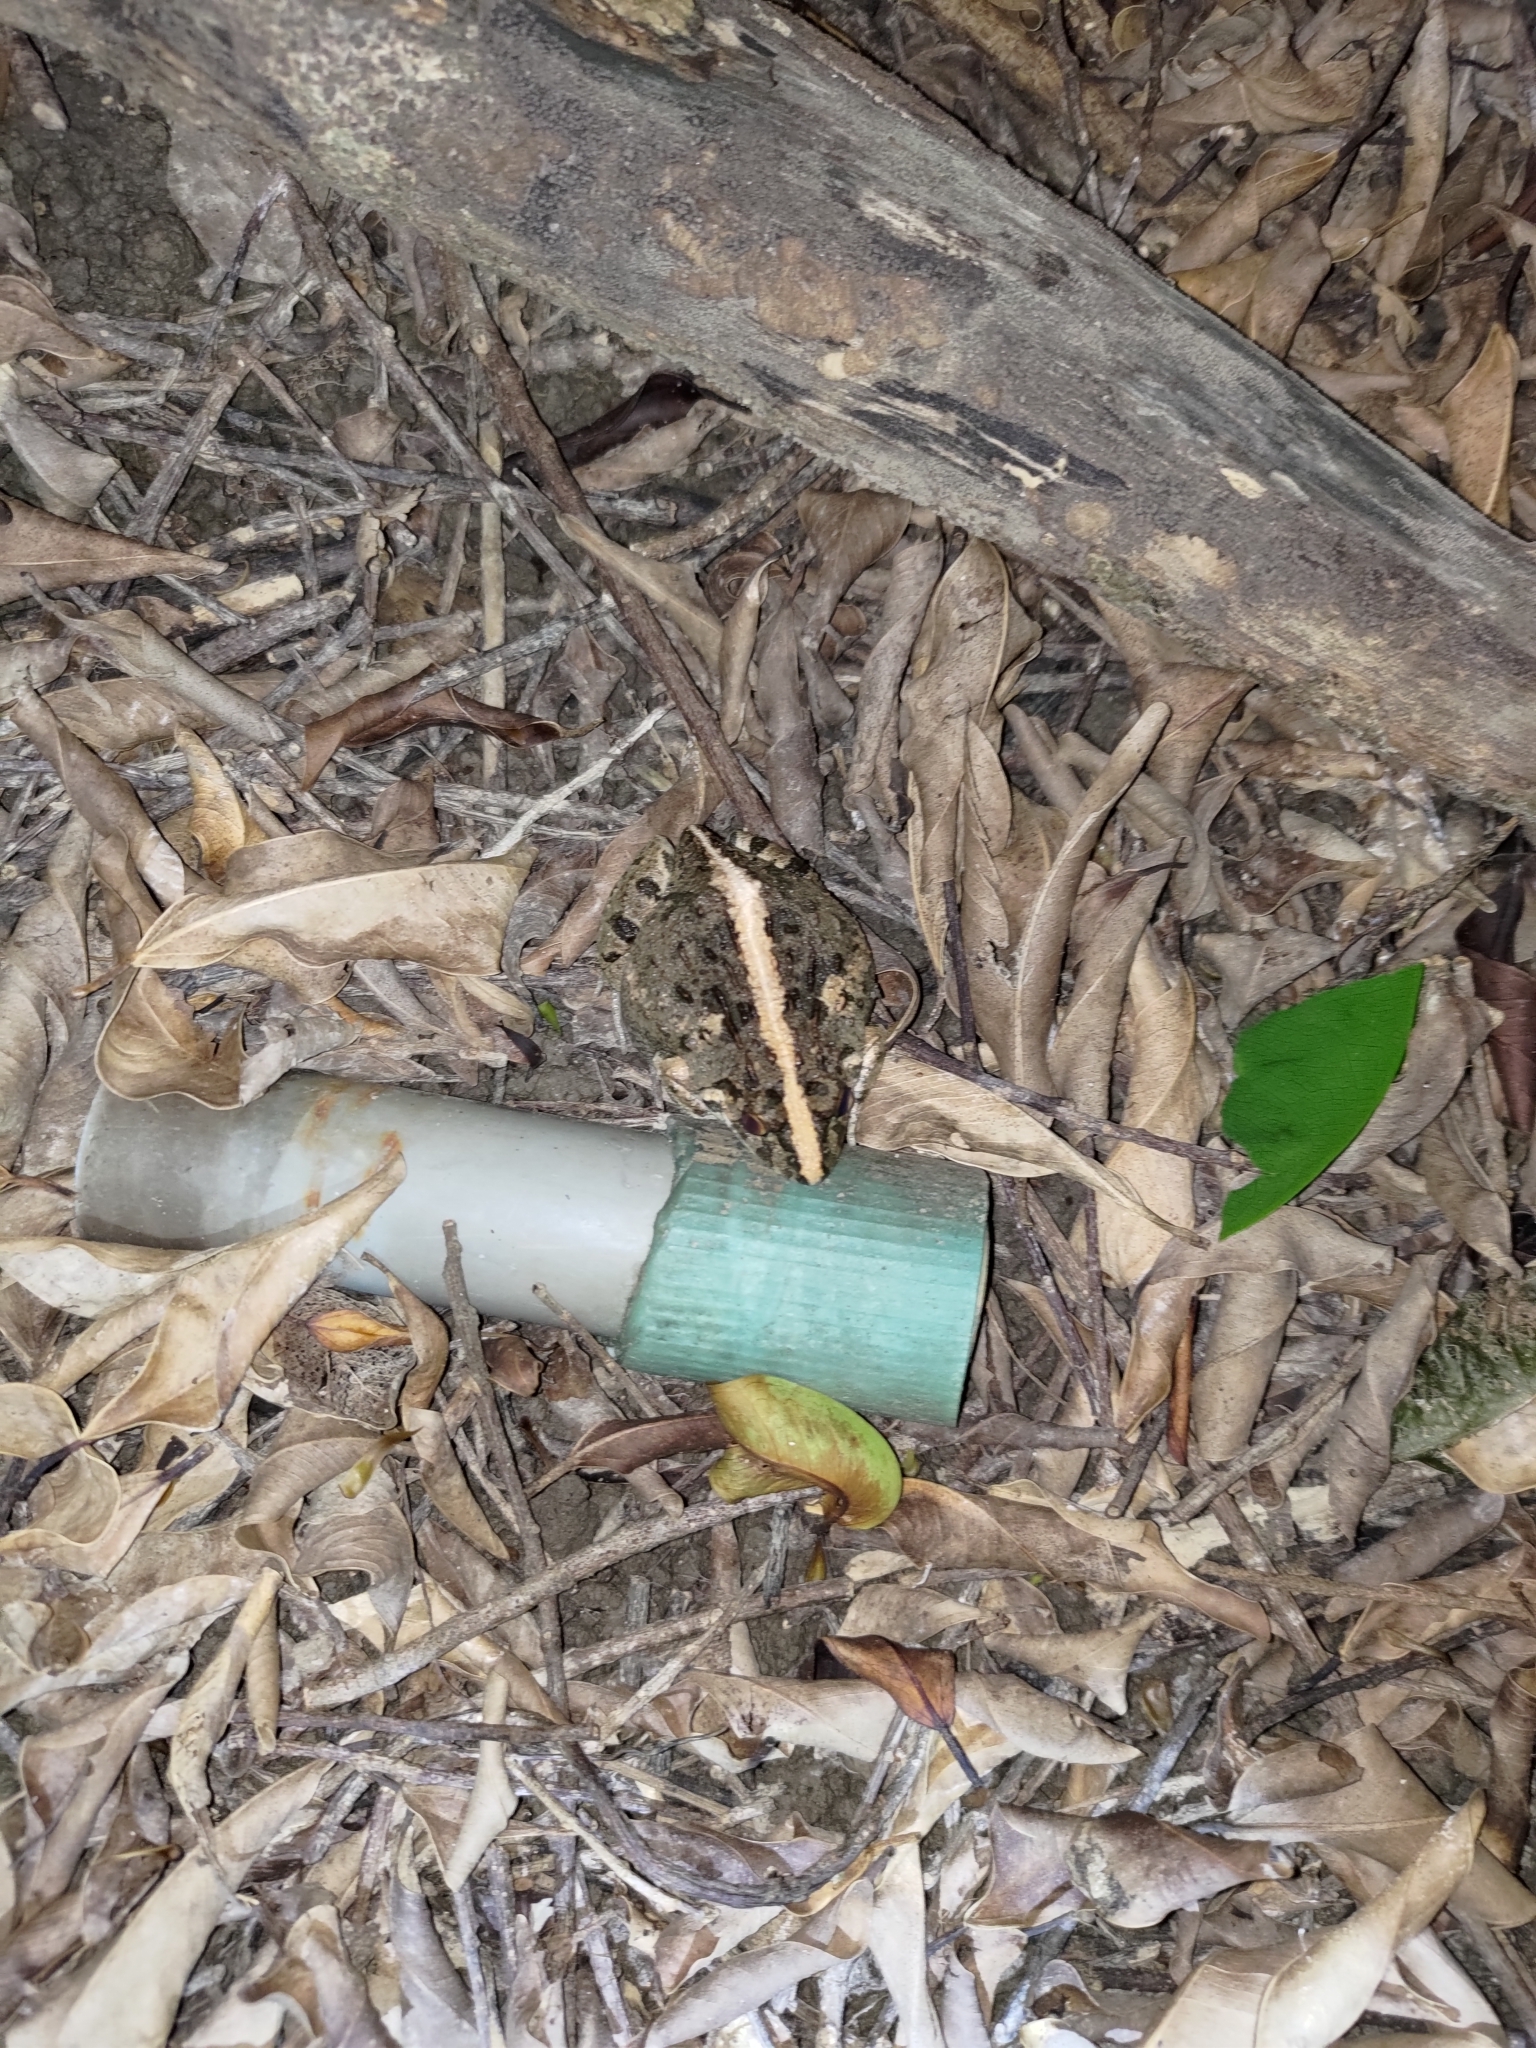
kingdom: Animalia
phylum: Chordata
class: Amphibia
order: Anura
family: Dicroglossidae
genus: Fejervarya
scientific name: Fejervarya limnocharis
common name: Asian grass frog/common pond frog/field frog/grass frog/indian rice frog
